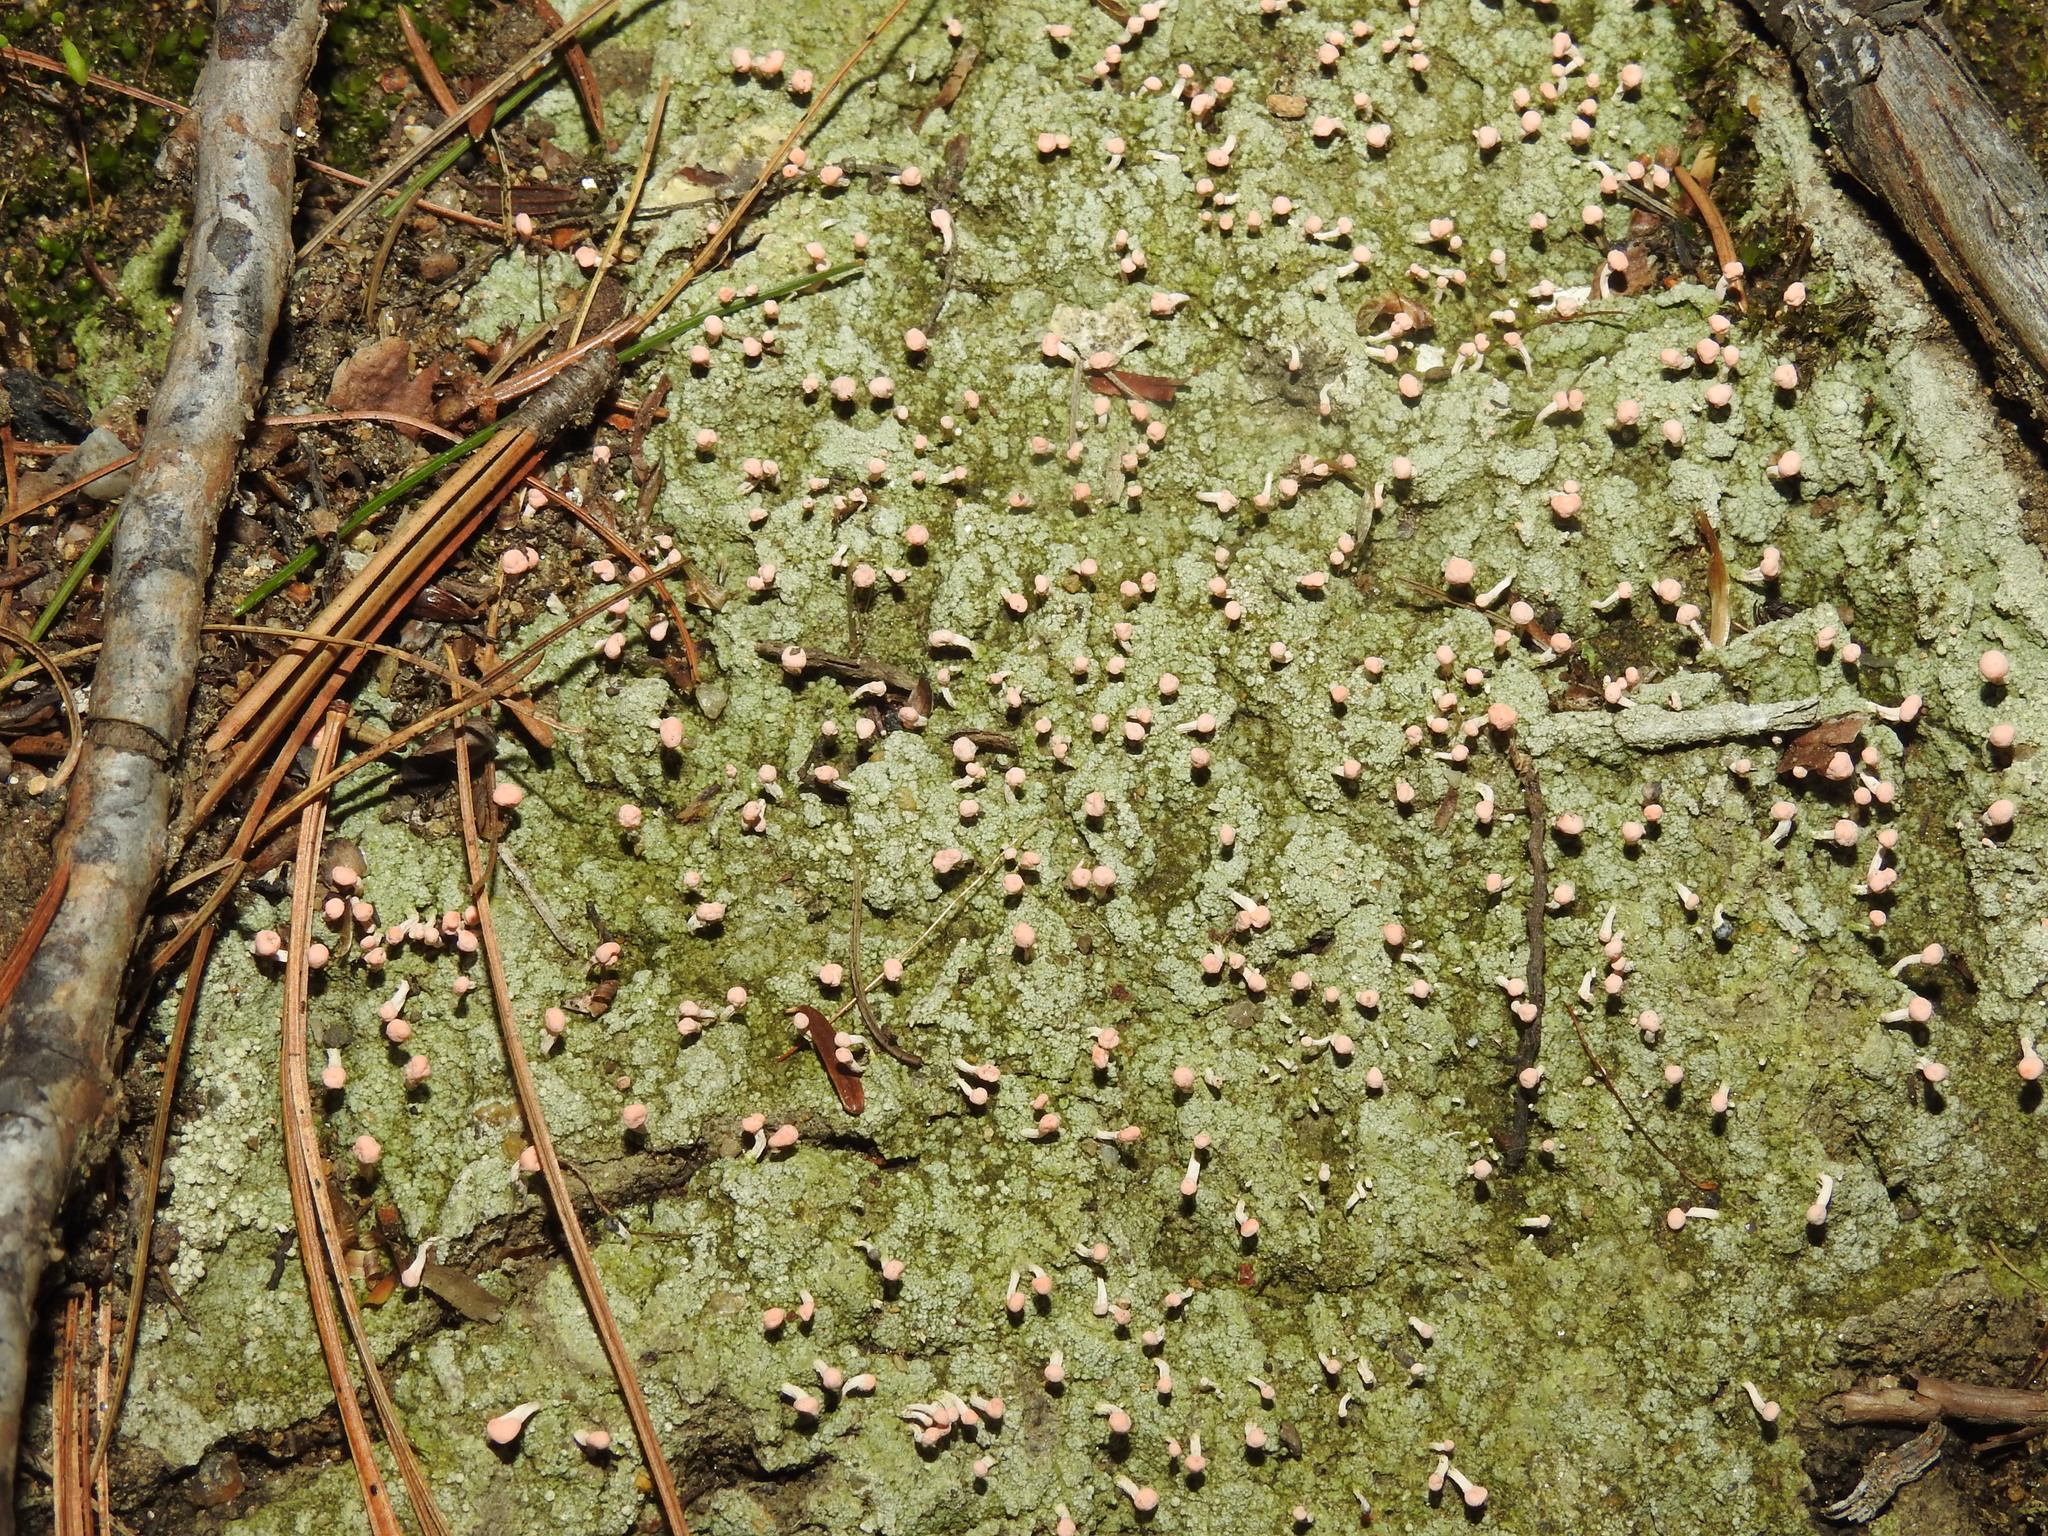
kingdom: Fungi
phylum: Ascomycota
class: Lecanoromycetes
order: Pertusariales
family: Icmadophilaceae
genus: Dibaeis
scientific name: Dibaeis baeomyces
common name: Pink earth lichen
